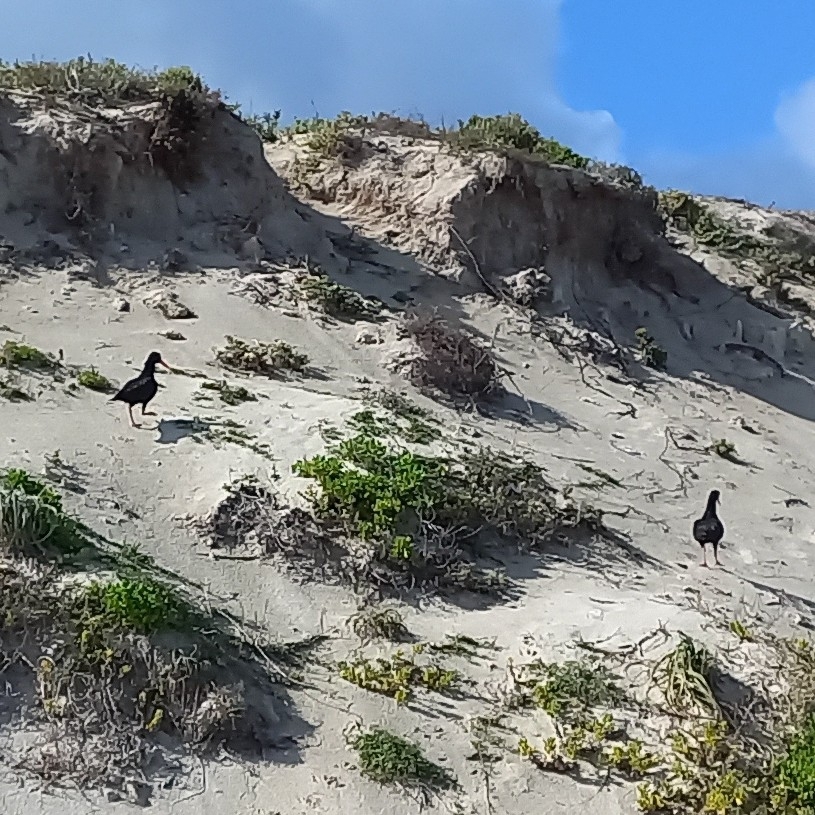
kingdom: Animalia
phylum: Chordata
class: Aves
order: Charadriiformes
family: Haematopodidae
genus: Haematopus
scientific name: Haematopus moquini
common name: African oystercatcher
